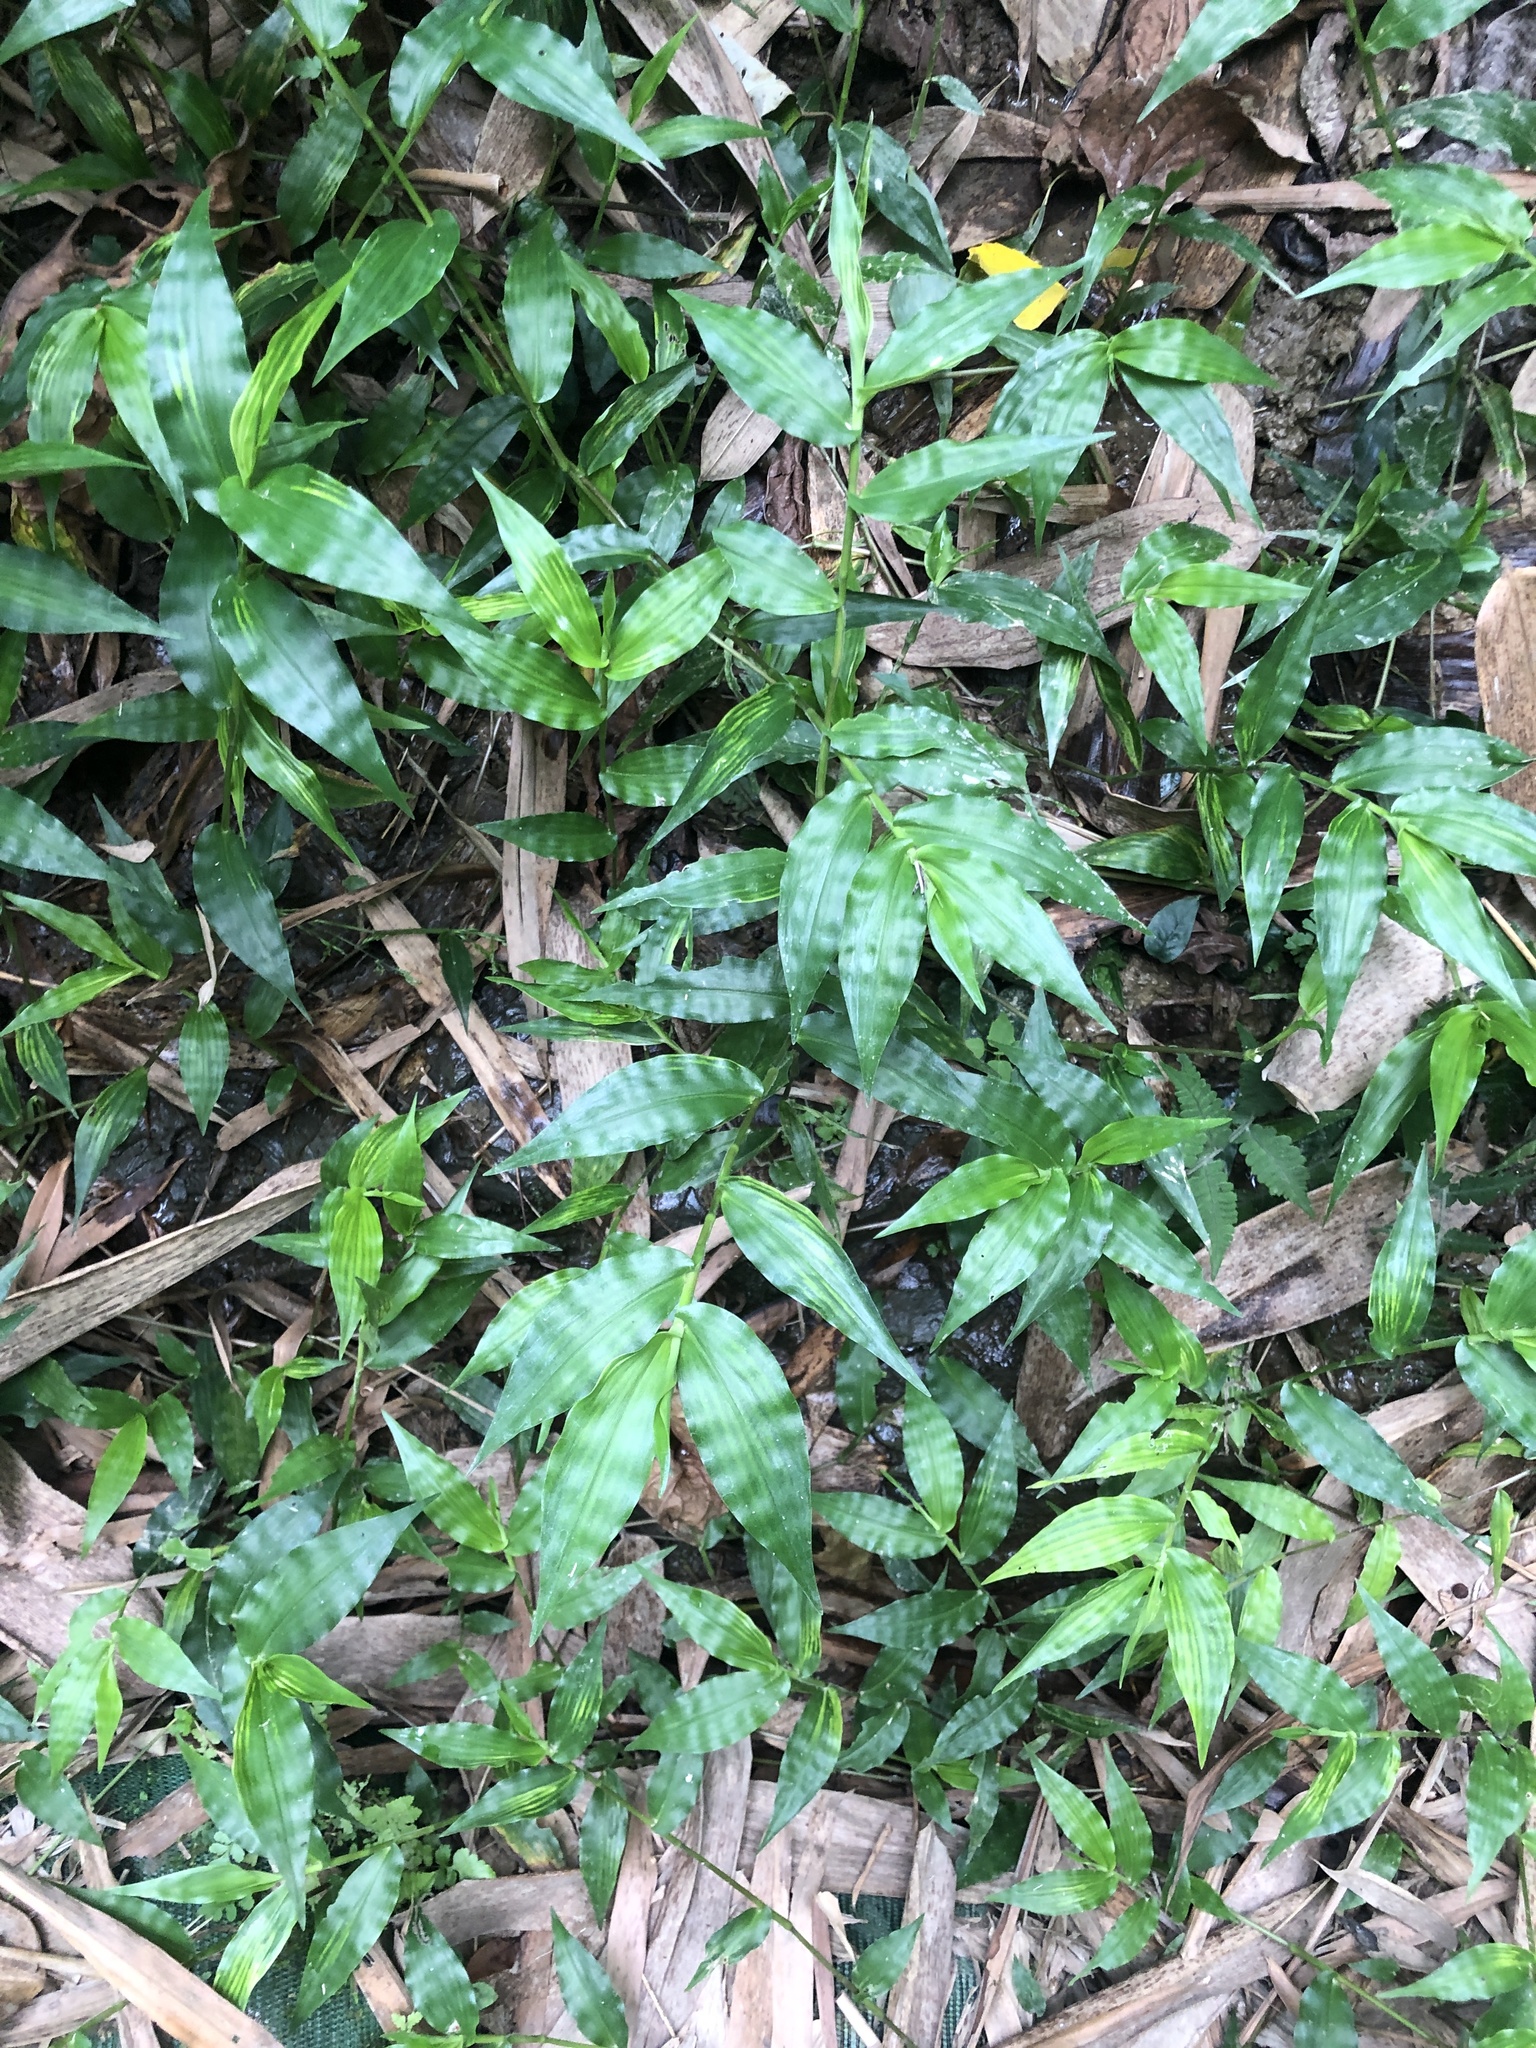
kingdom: Plantae
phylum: Tracheophyta
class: Liliopsida
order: Poales
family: Poaceae
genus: Oplismenus
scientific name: Oplismenus compositus
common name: Running mountain grass
